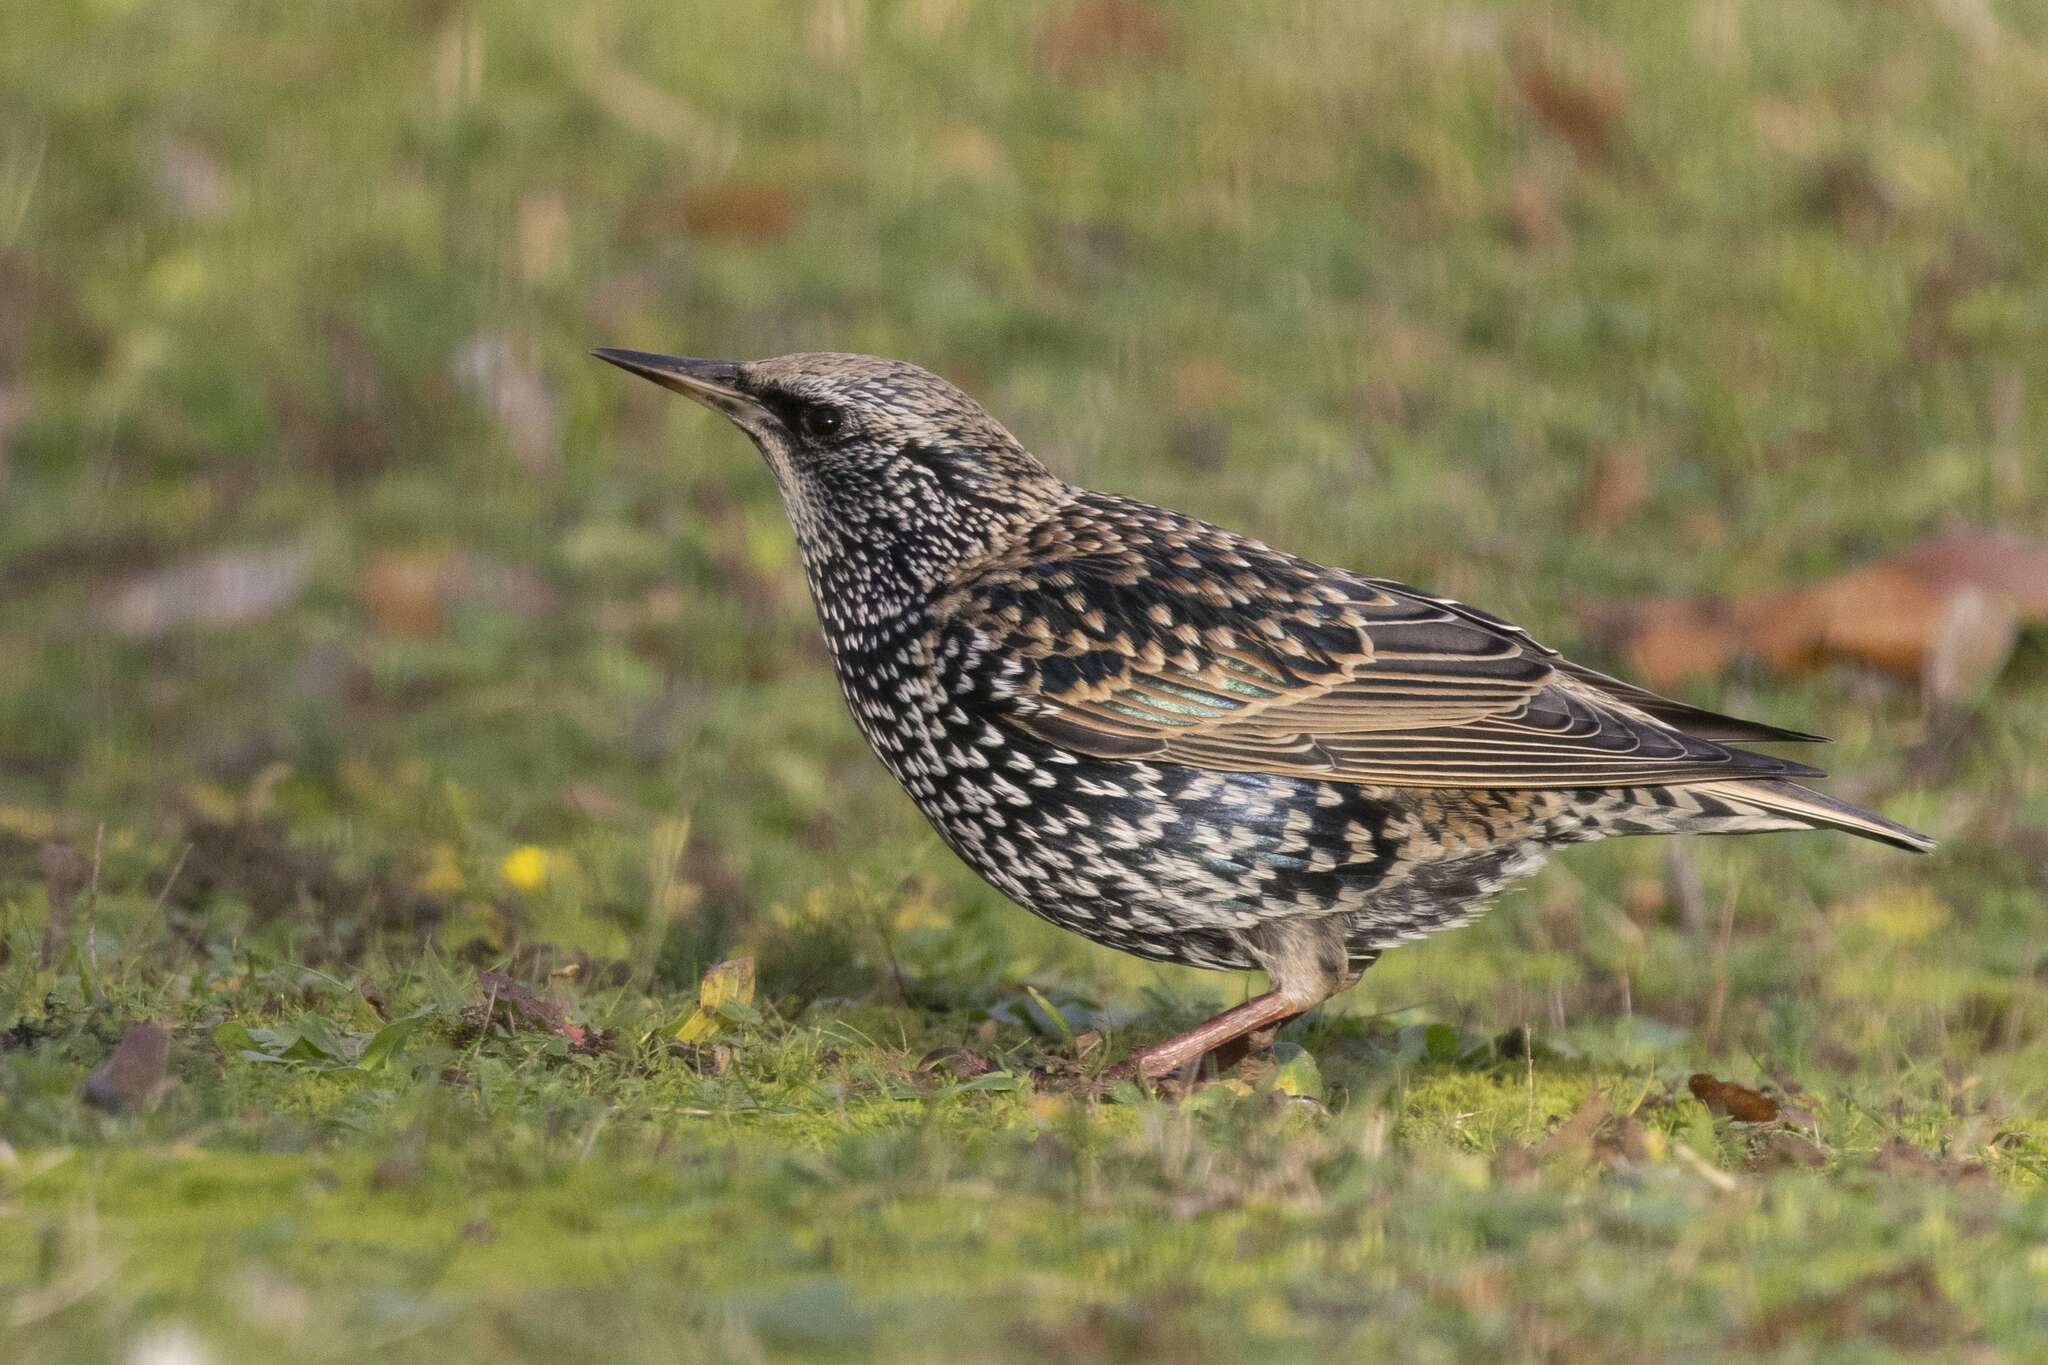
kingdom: Animalia
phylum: Chordata
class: Aves
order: Passeriformes
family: Sturnidae
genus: Sturnus
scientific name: Sturnus vulgaris
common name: Common starling
